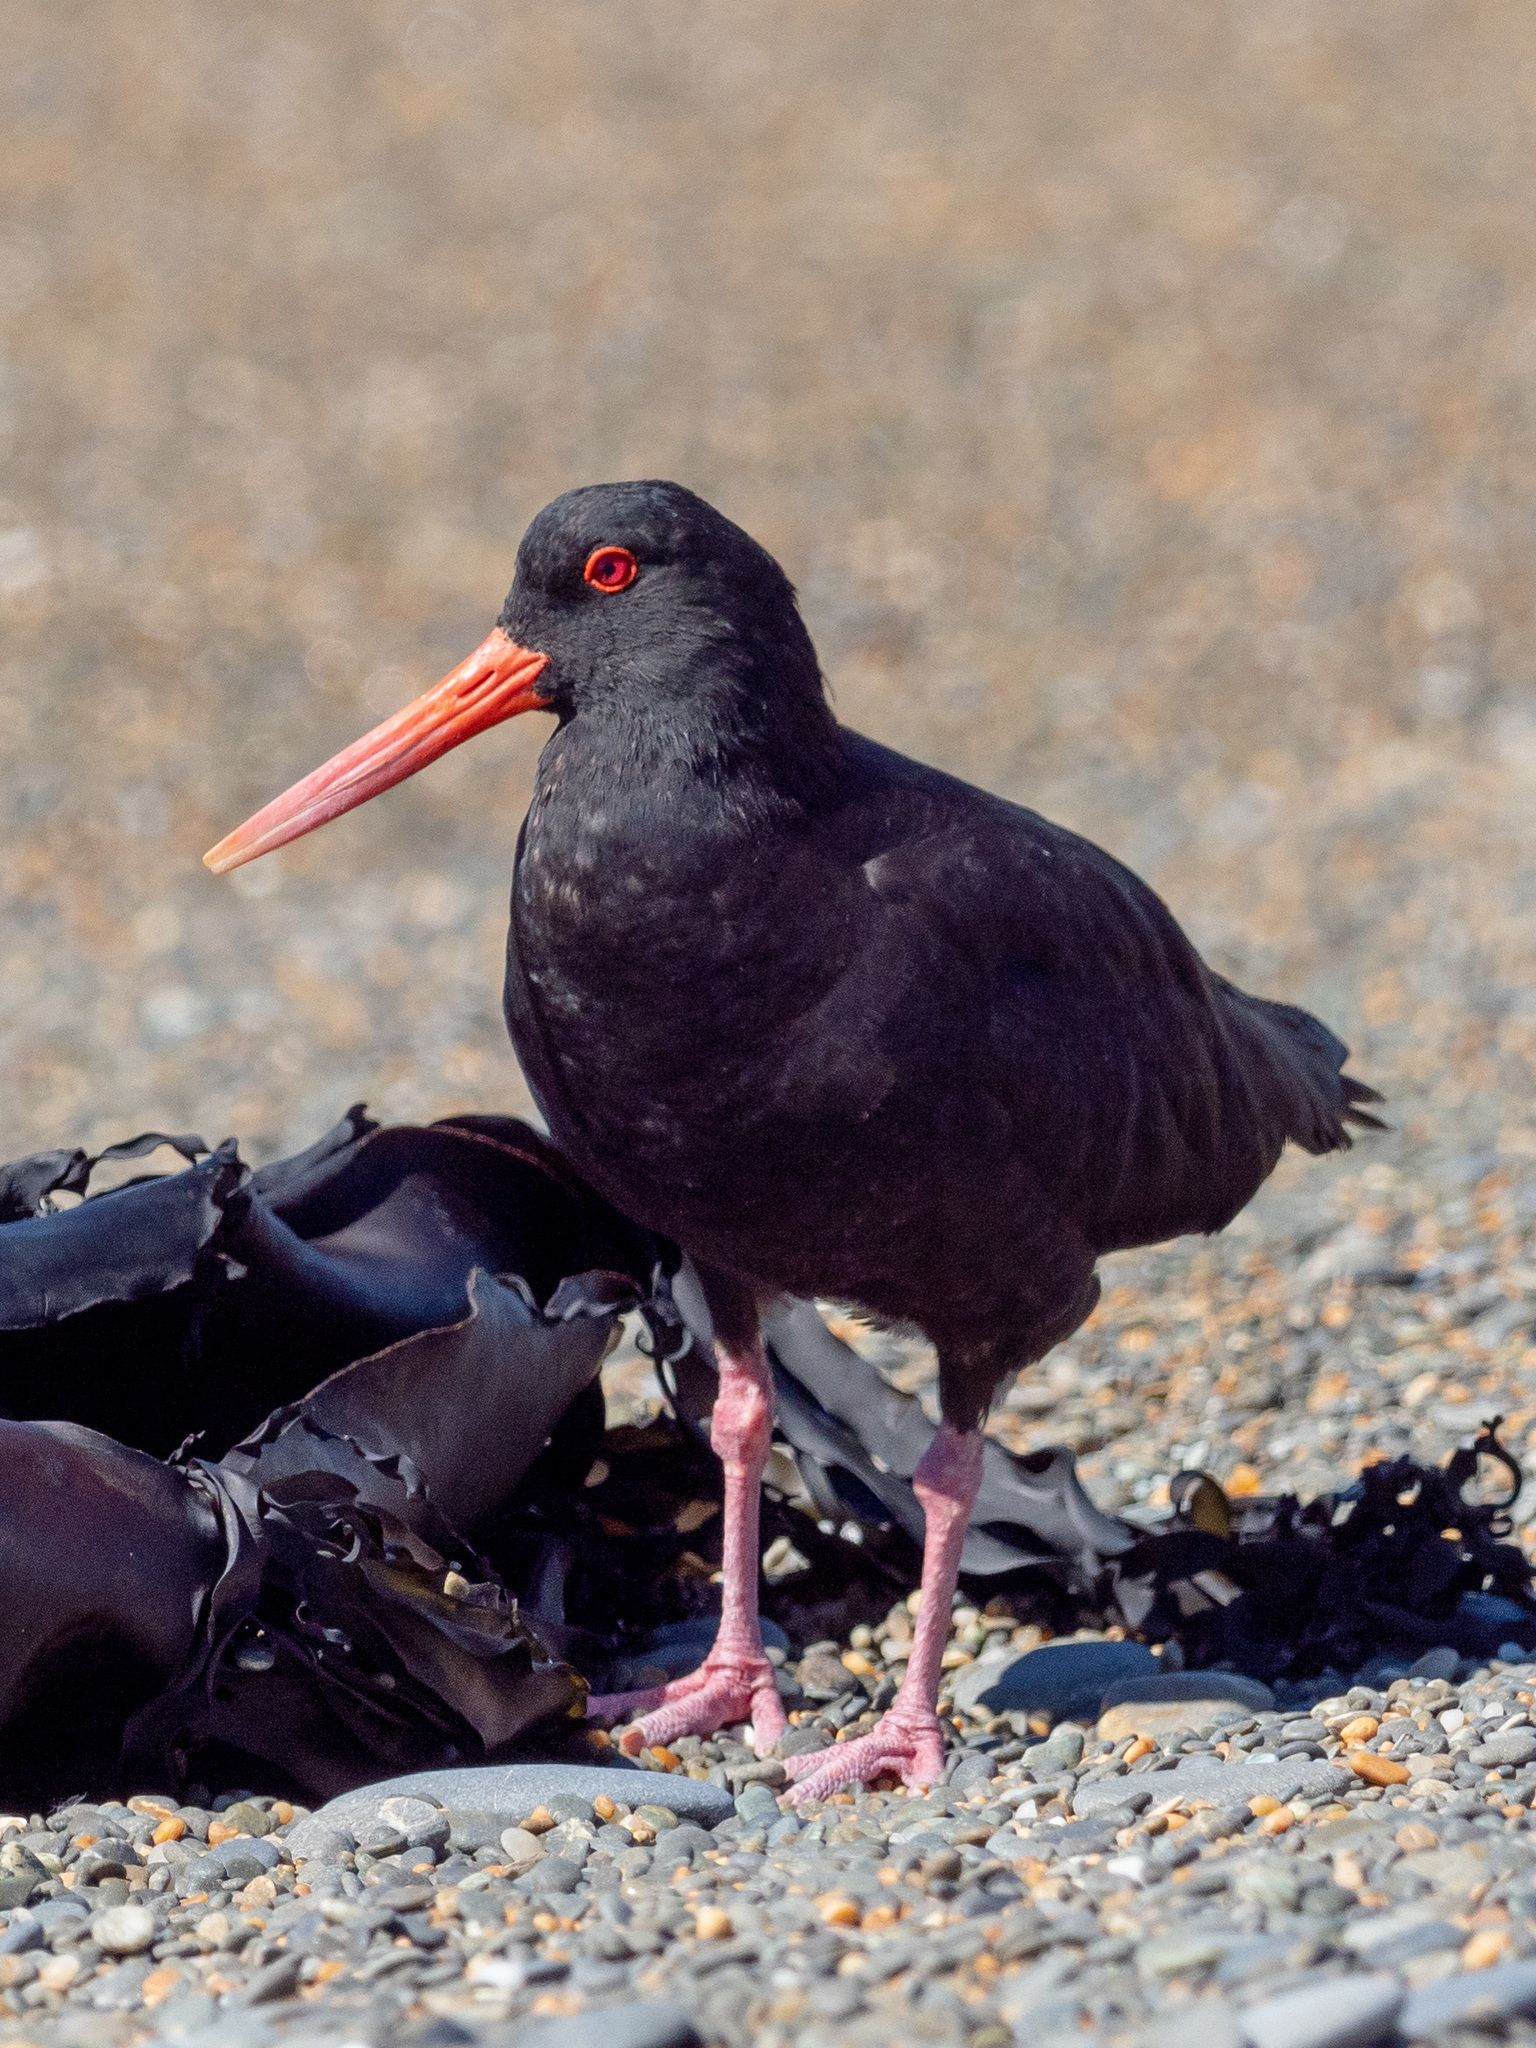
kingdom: Animalia
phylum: Chordata
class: Aves
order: Coraciiformes
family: Alcedinidae
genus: Todiramphus
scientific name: Todiramphus sanctus
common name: Sacred kingfisher
